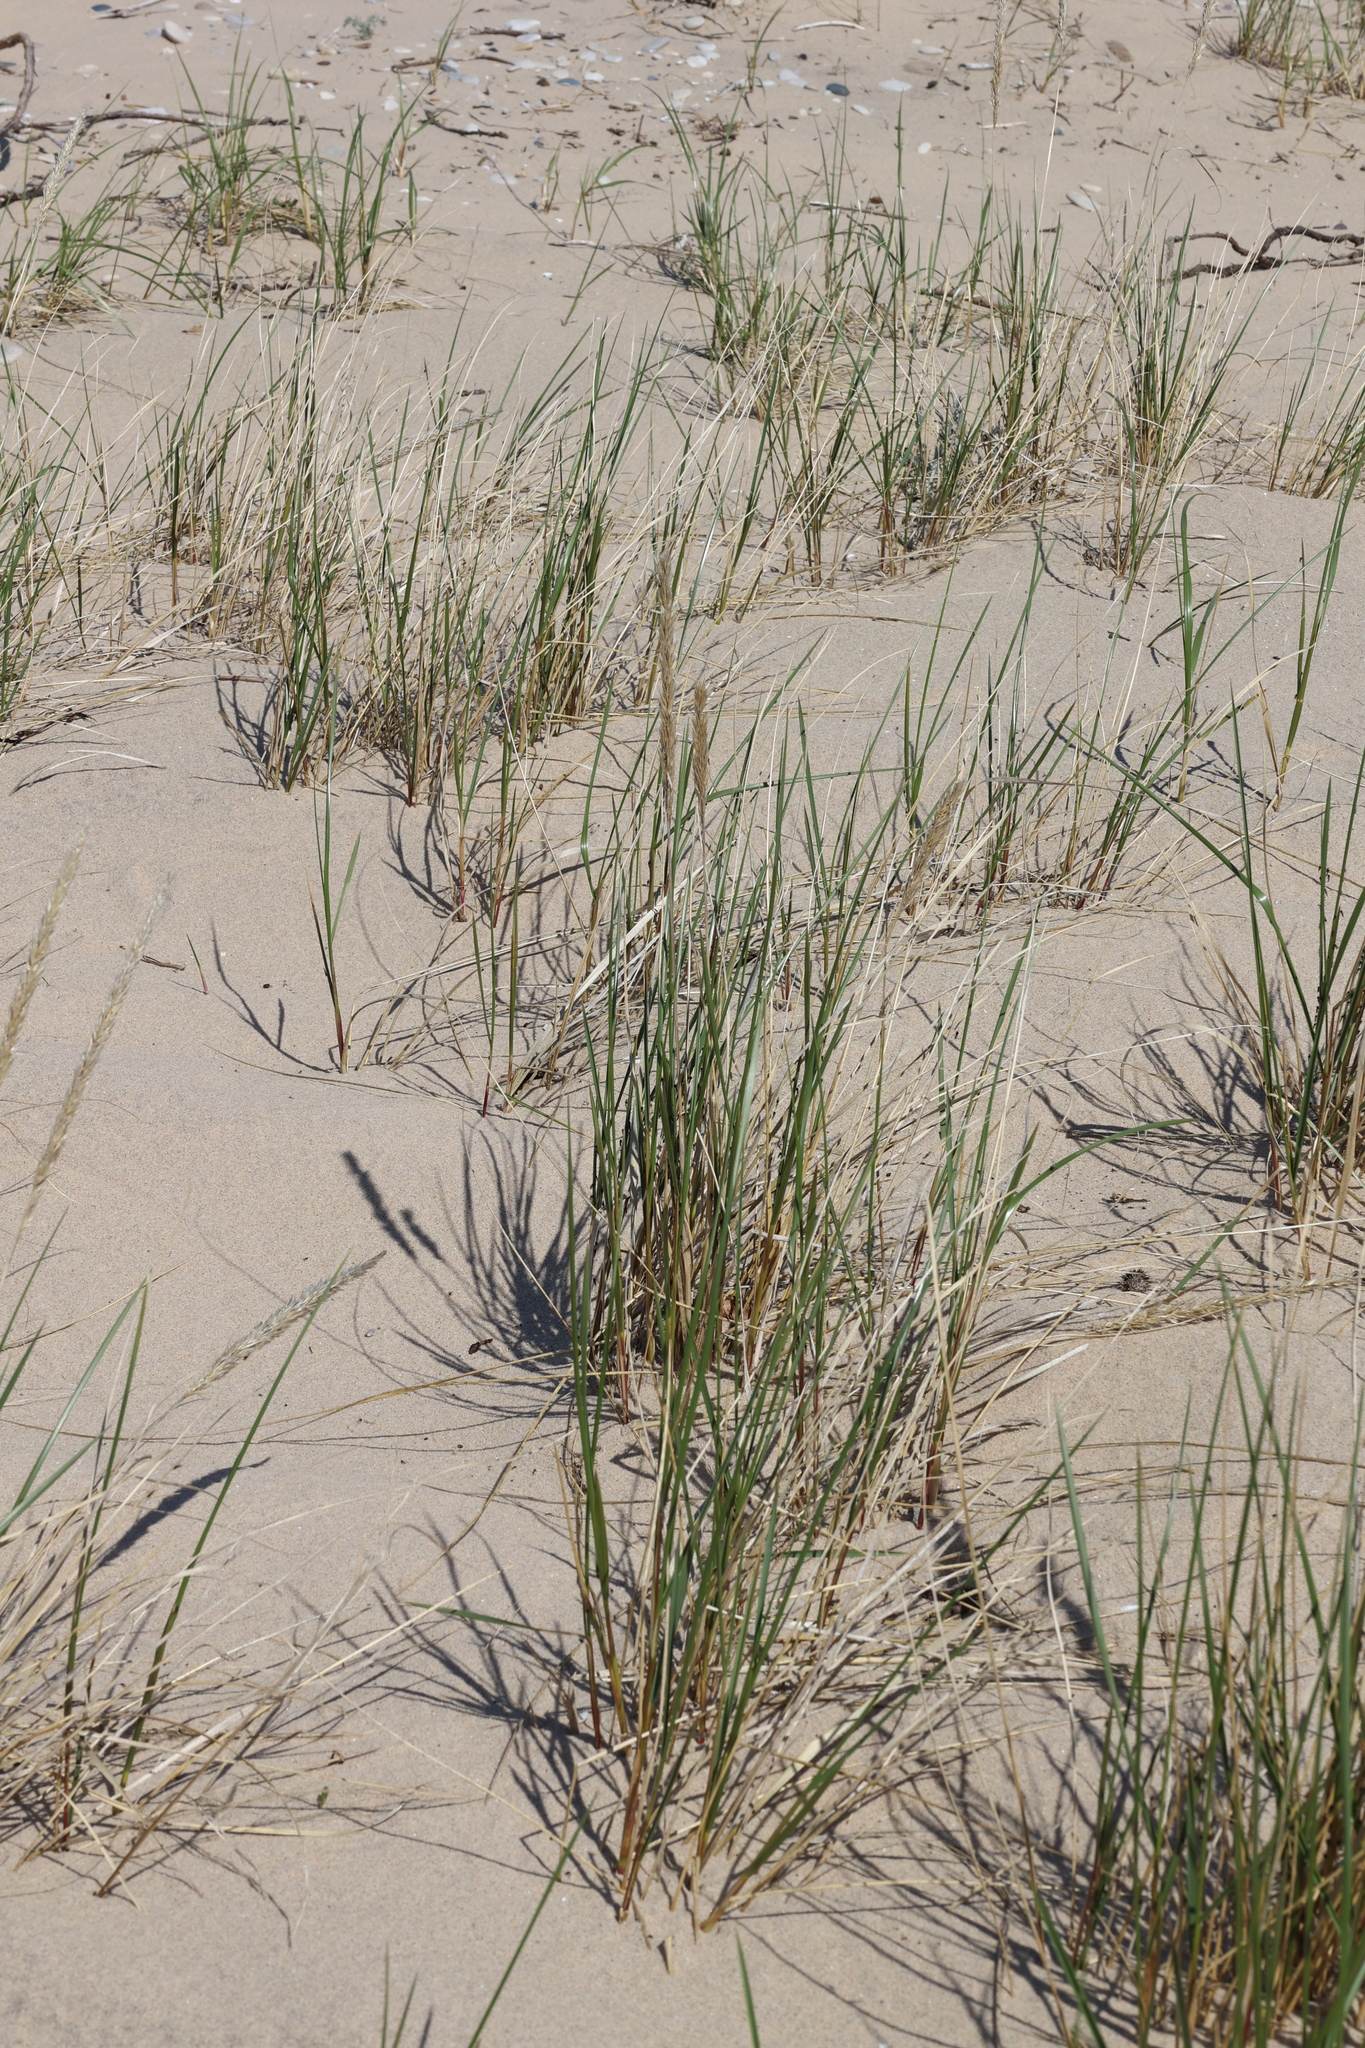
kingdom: Plantae
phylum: Tracheophyta
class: Liliopsida
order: Poales
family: Poaceae
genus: Calamagrostis
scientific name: Calamagrostis breviligulata
